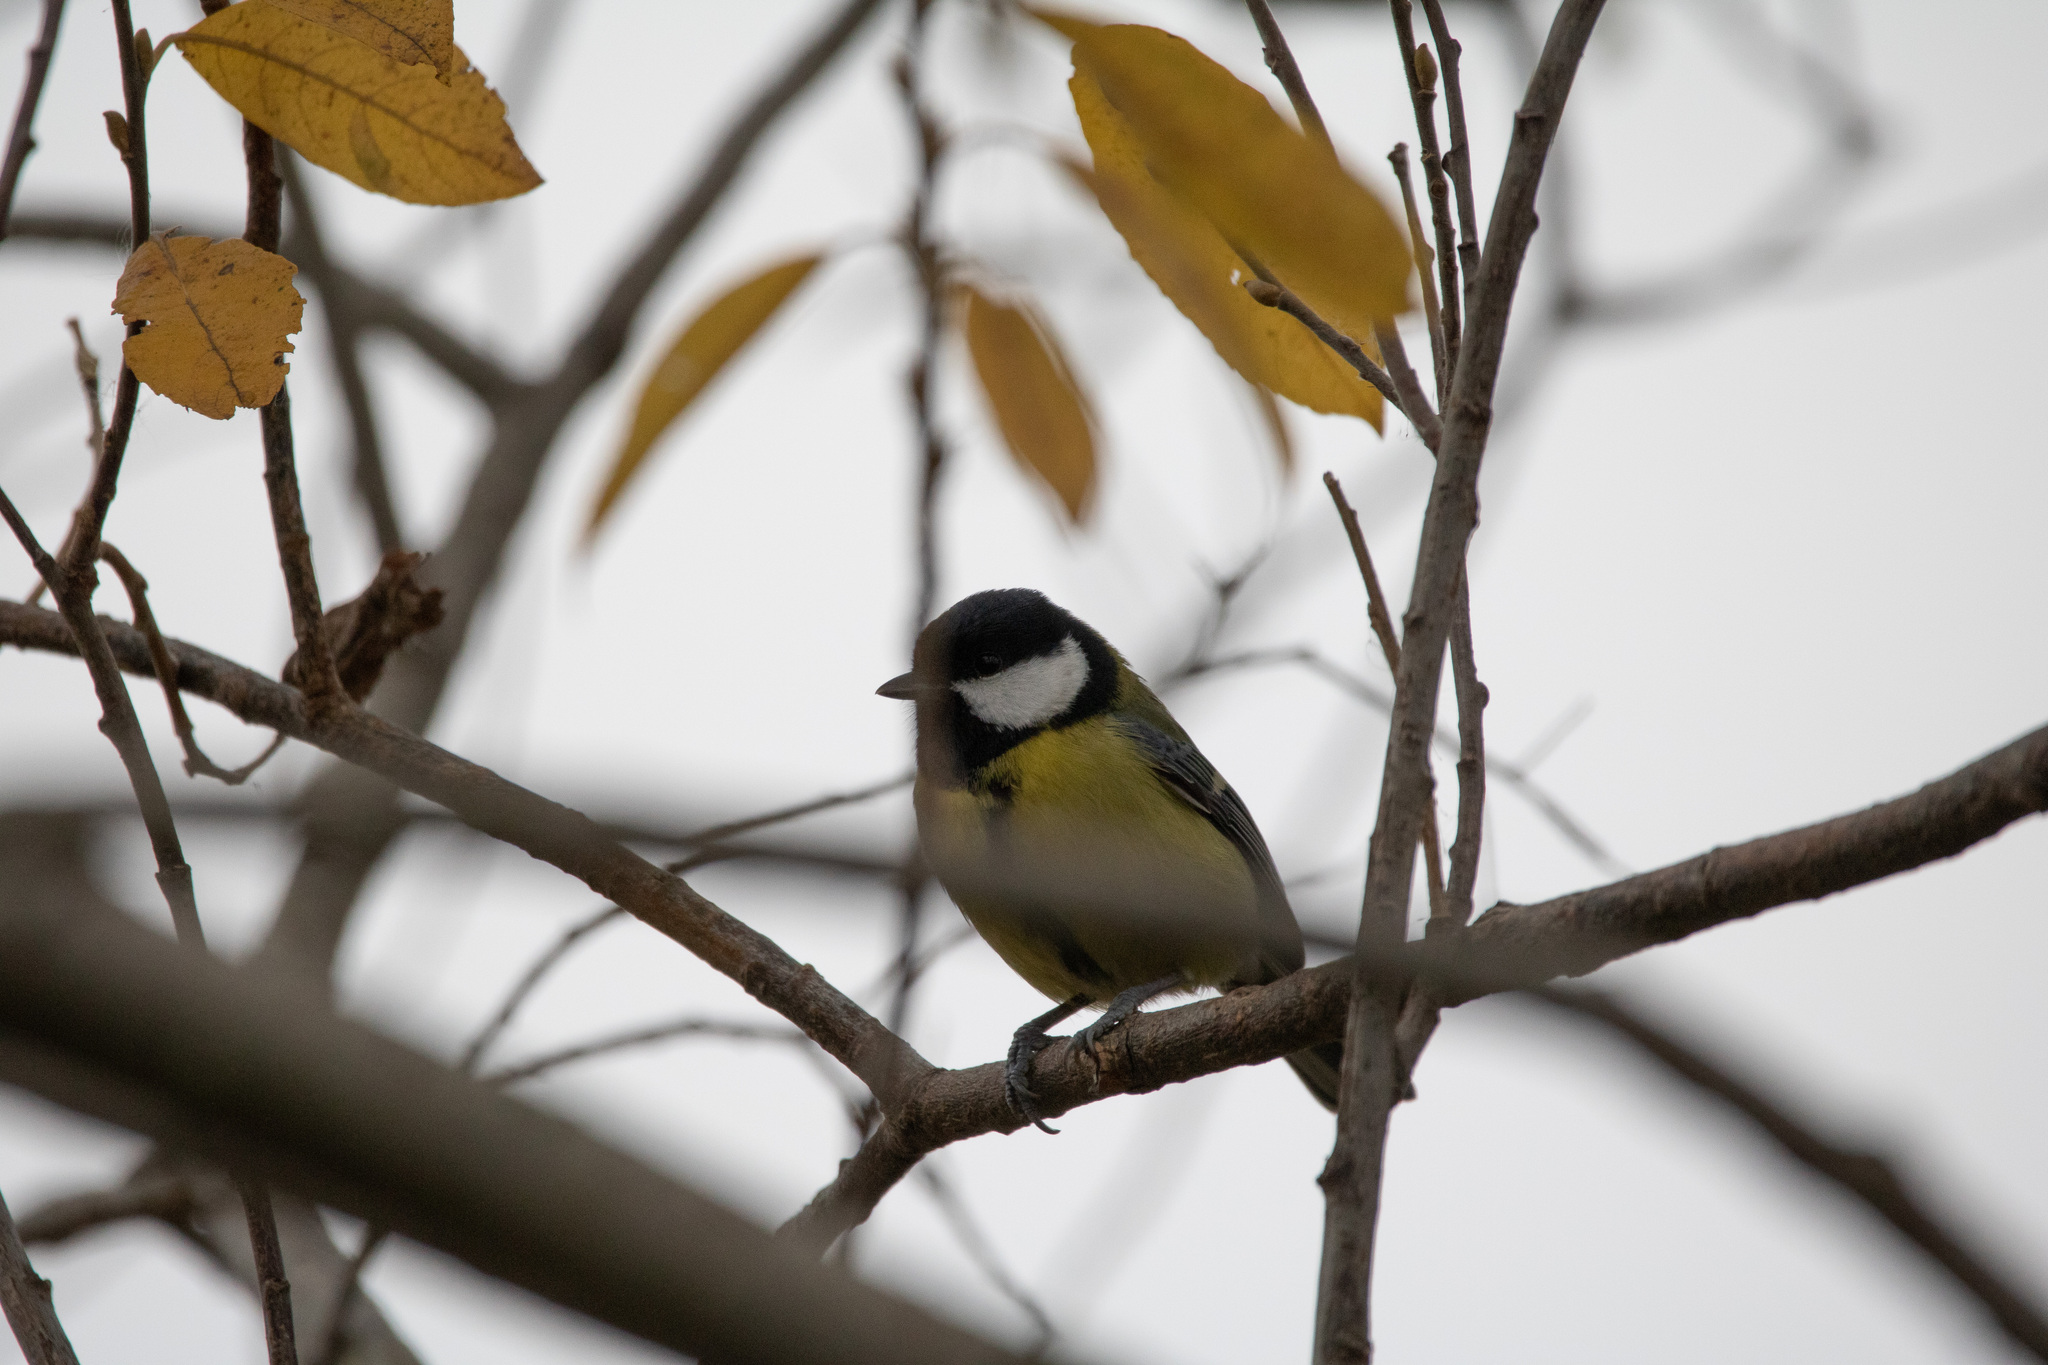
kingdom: Animalia
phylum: Chordata
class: Aves
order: Passeriformes
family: Paridae
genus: Parus
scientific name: Parus major
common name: Great tit
